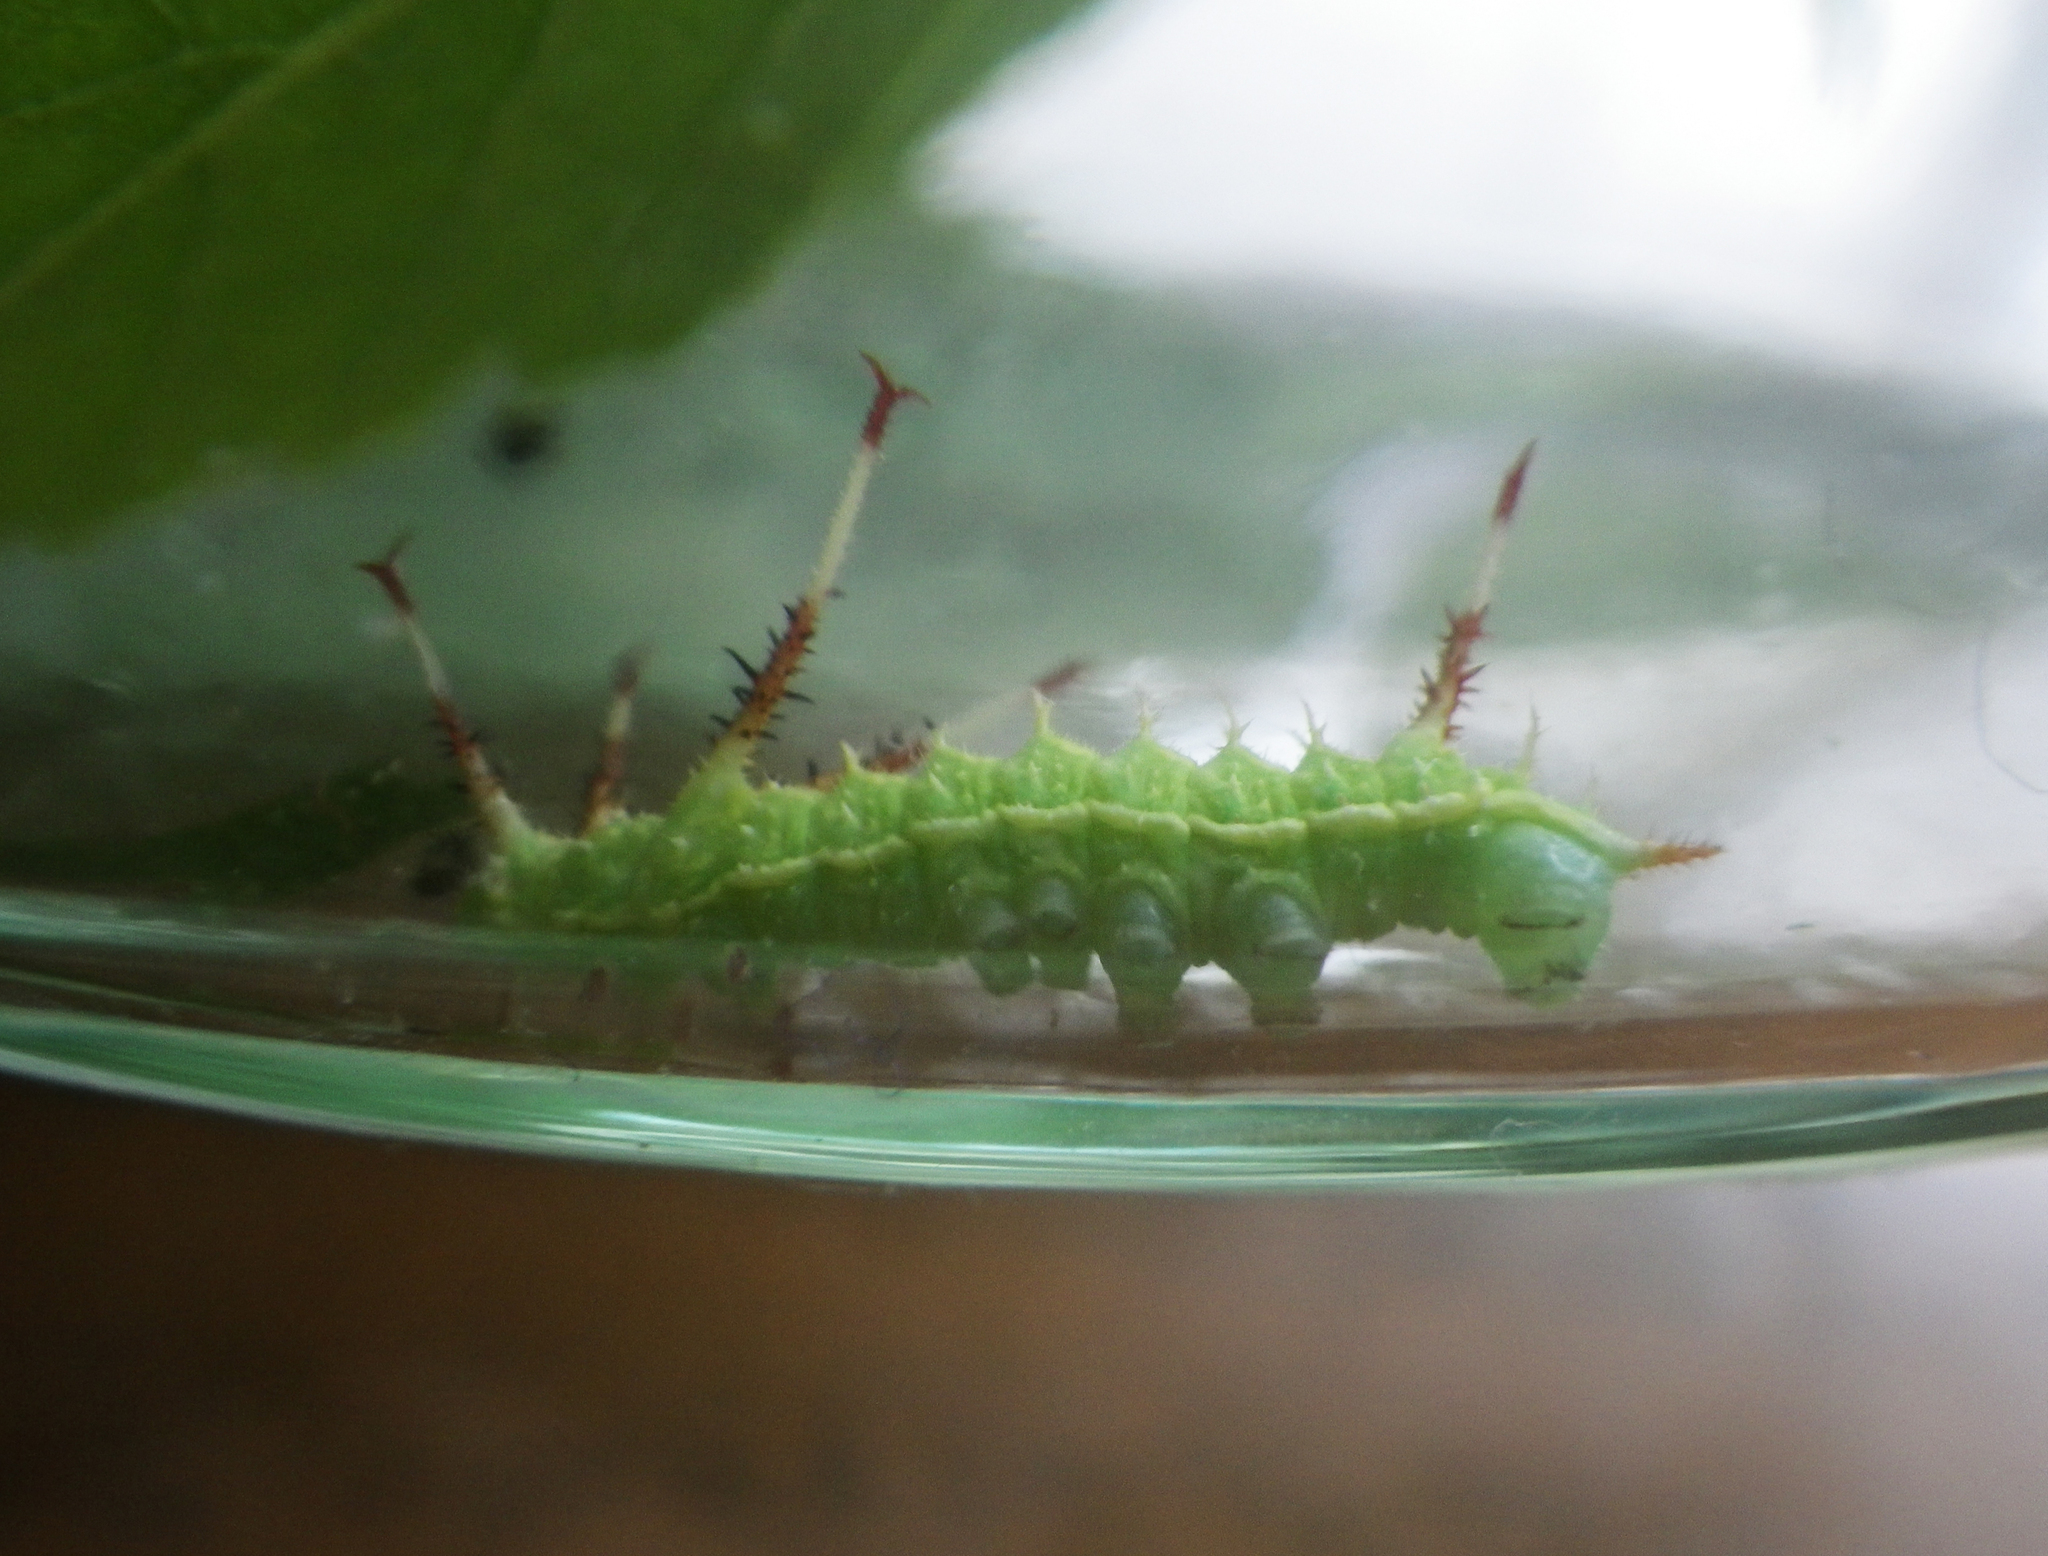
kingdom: Animalia
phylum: Arthropoda
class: Insecta
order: Lepidoptera
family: Saturniidae
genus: Aglia
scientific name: Aglia tau
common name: Tau emperor
